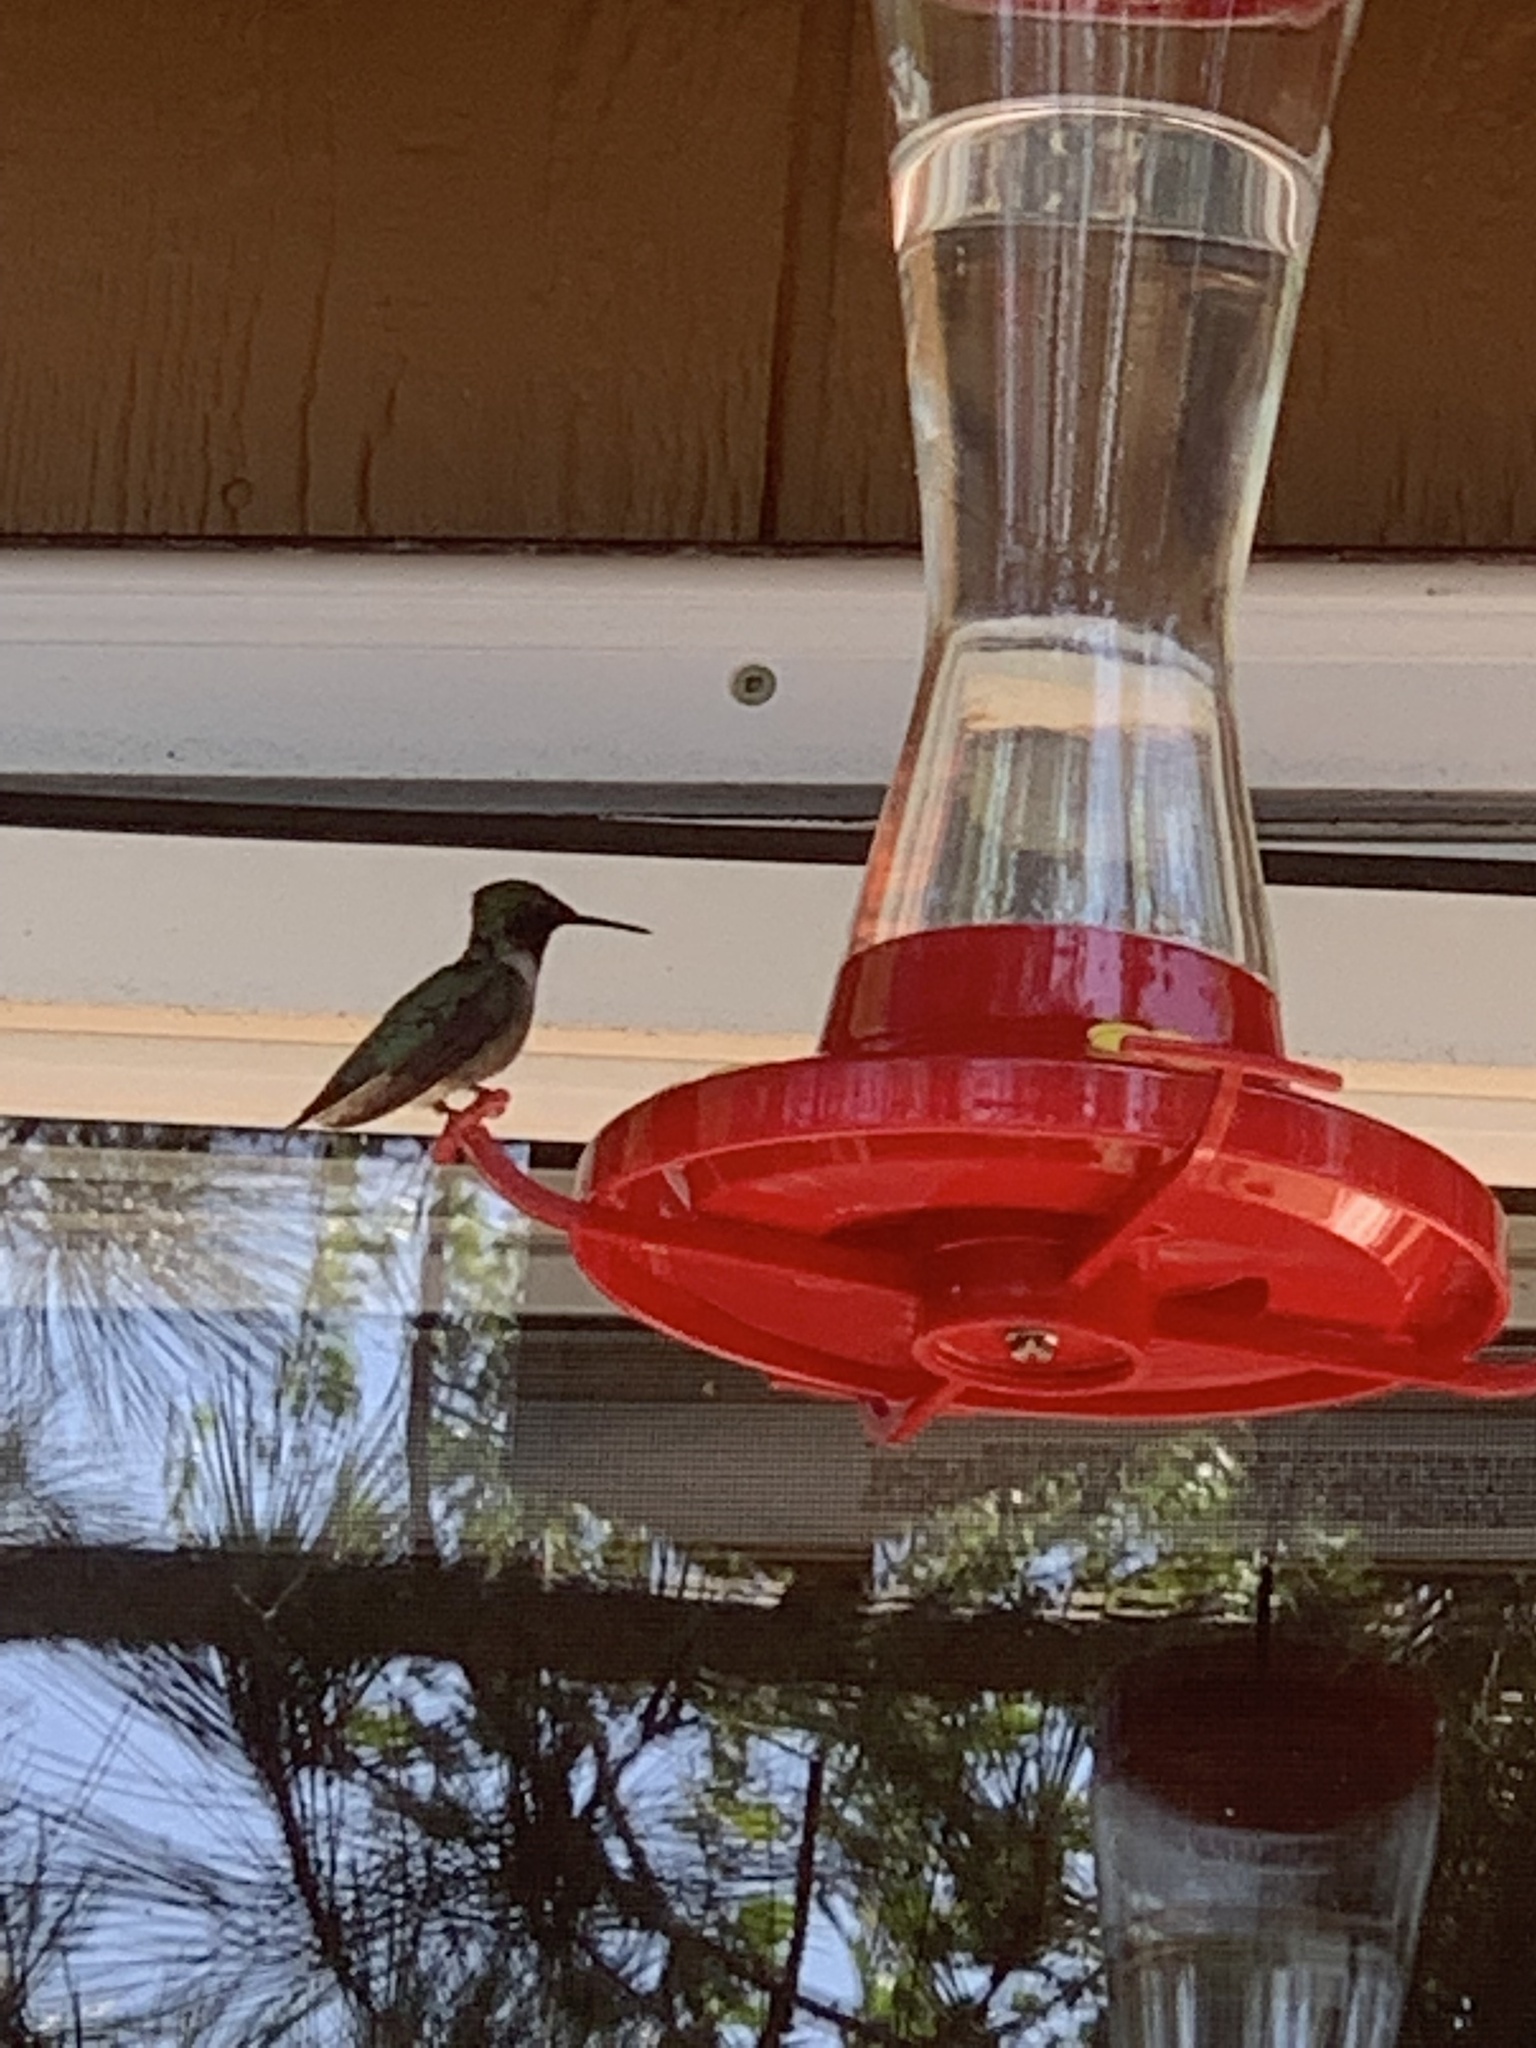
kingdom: Animalia
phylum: Chordata
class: Aves
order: Apodiformes
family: Trochilidae
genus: Archilochus
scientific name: Archilochus colubris
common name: Ruby-throated hummingbird
